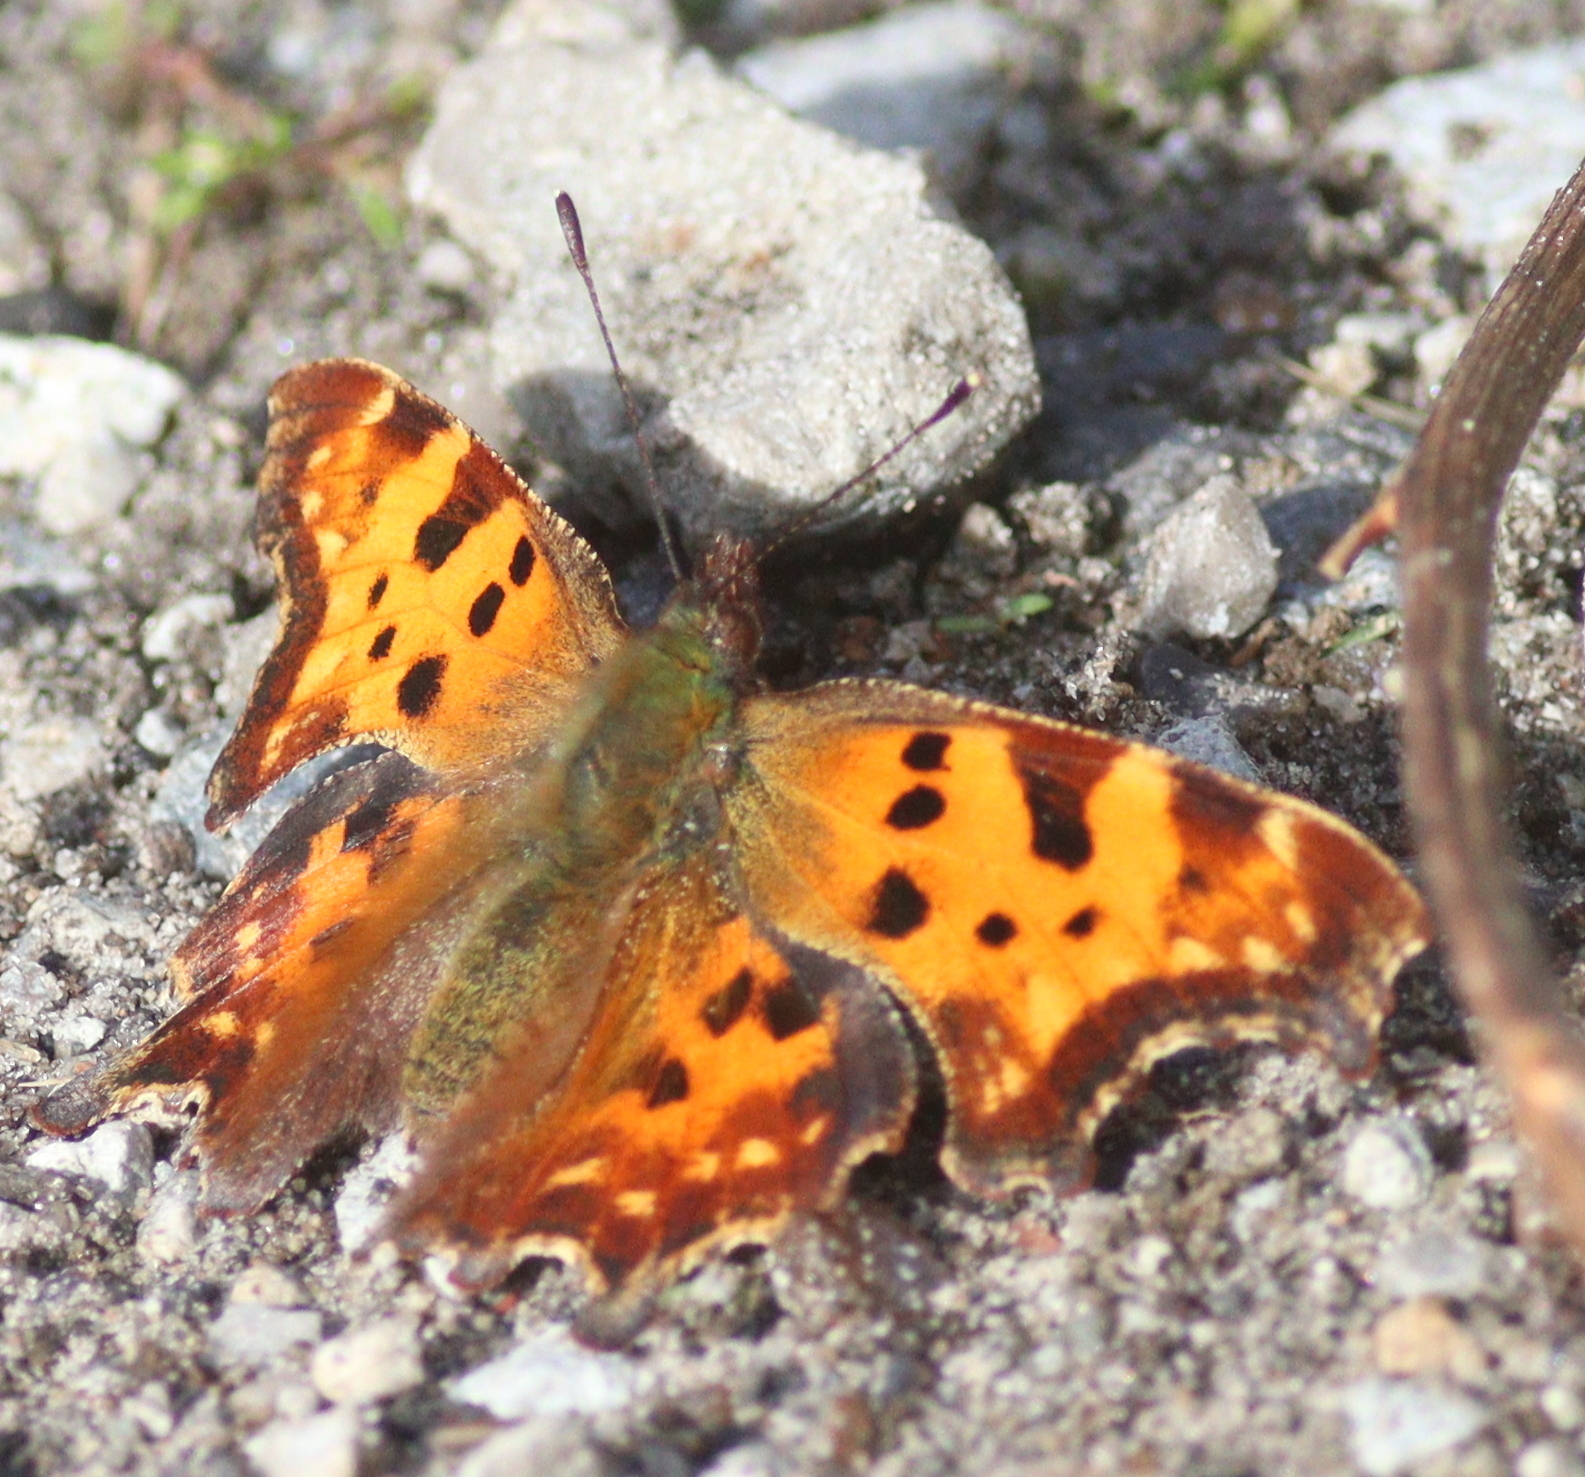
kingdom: Animalia
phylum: Arthropoda
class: Insecta
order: Lepidoptera
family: Nymphalidae
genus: Polygonia
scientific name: Polygonia c-album
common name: Comma
